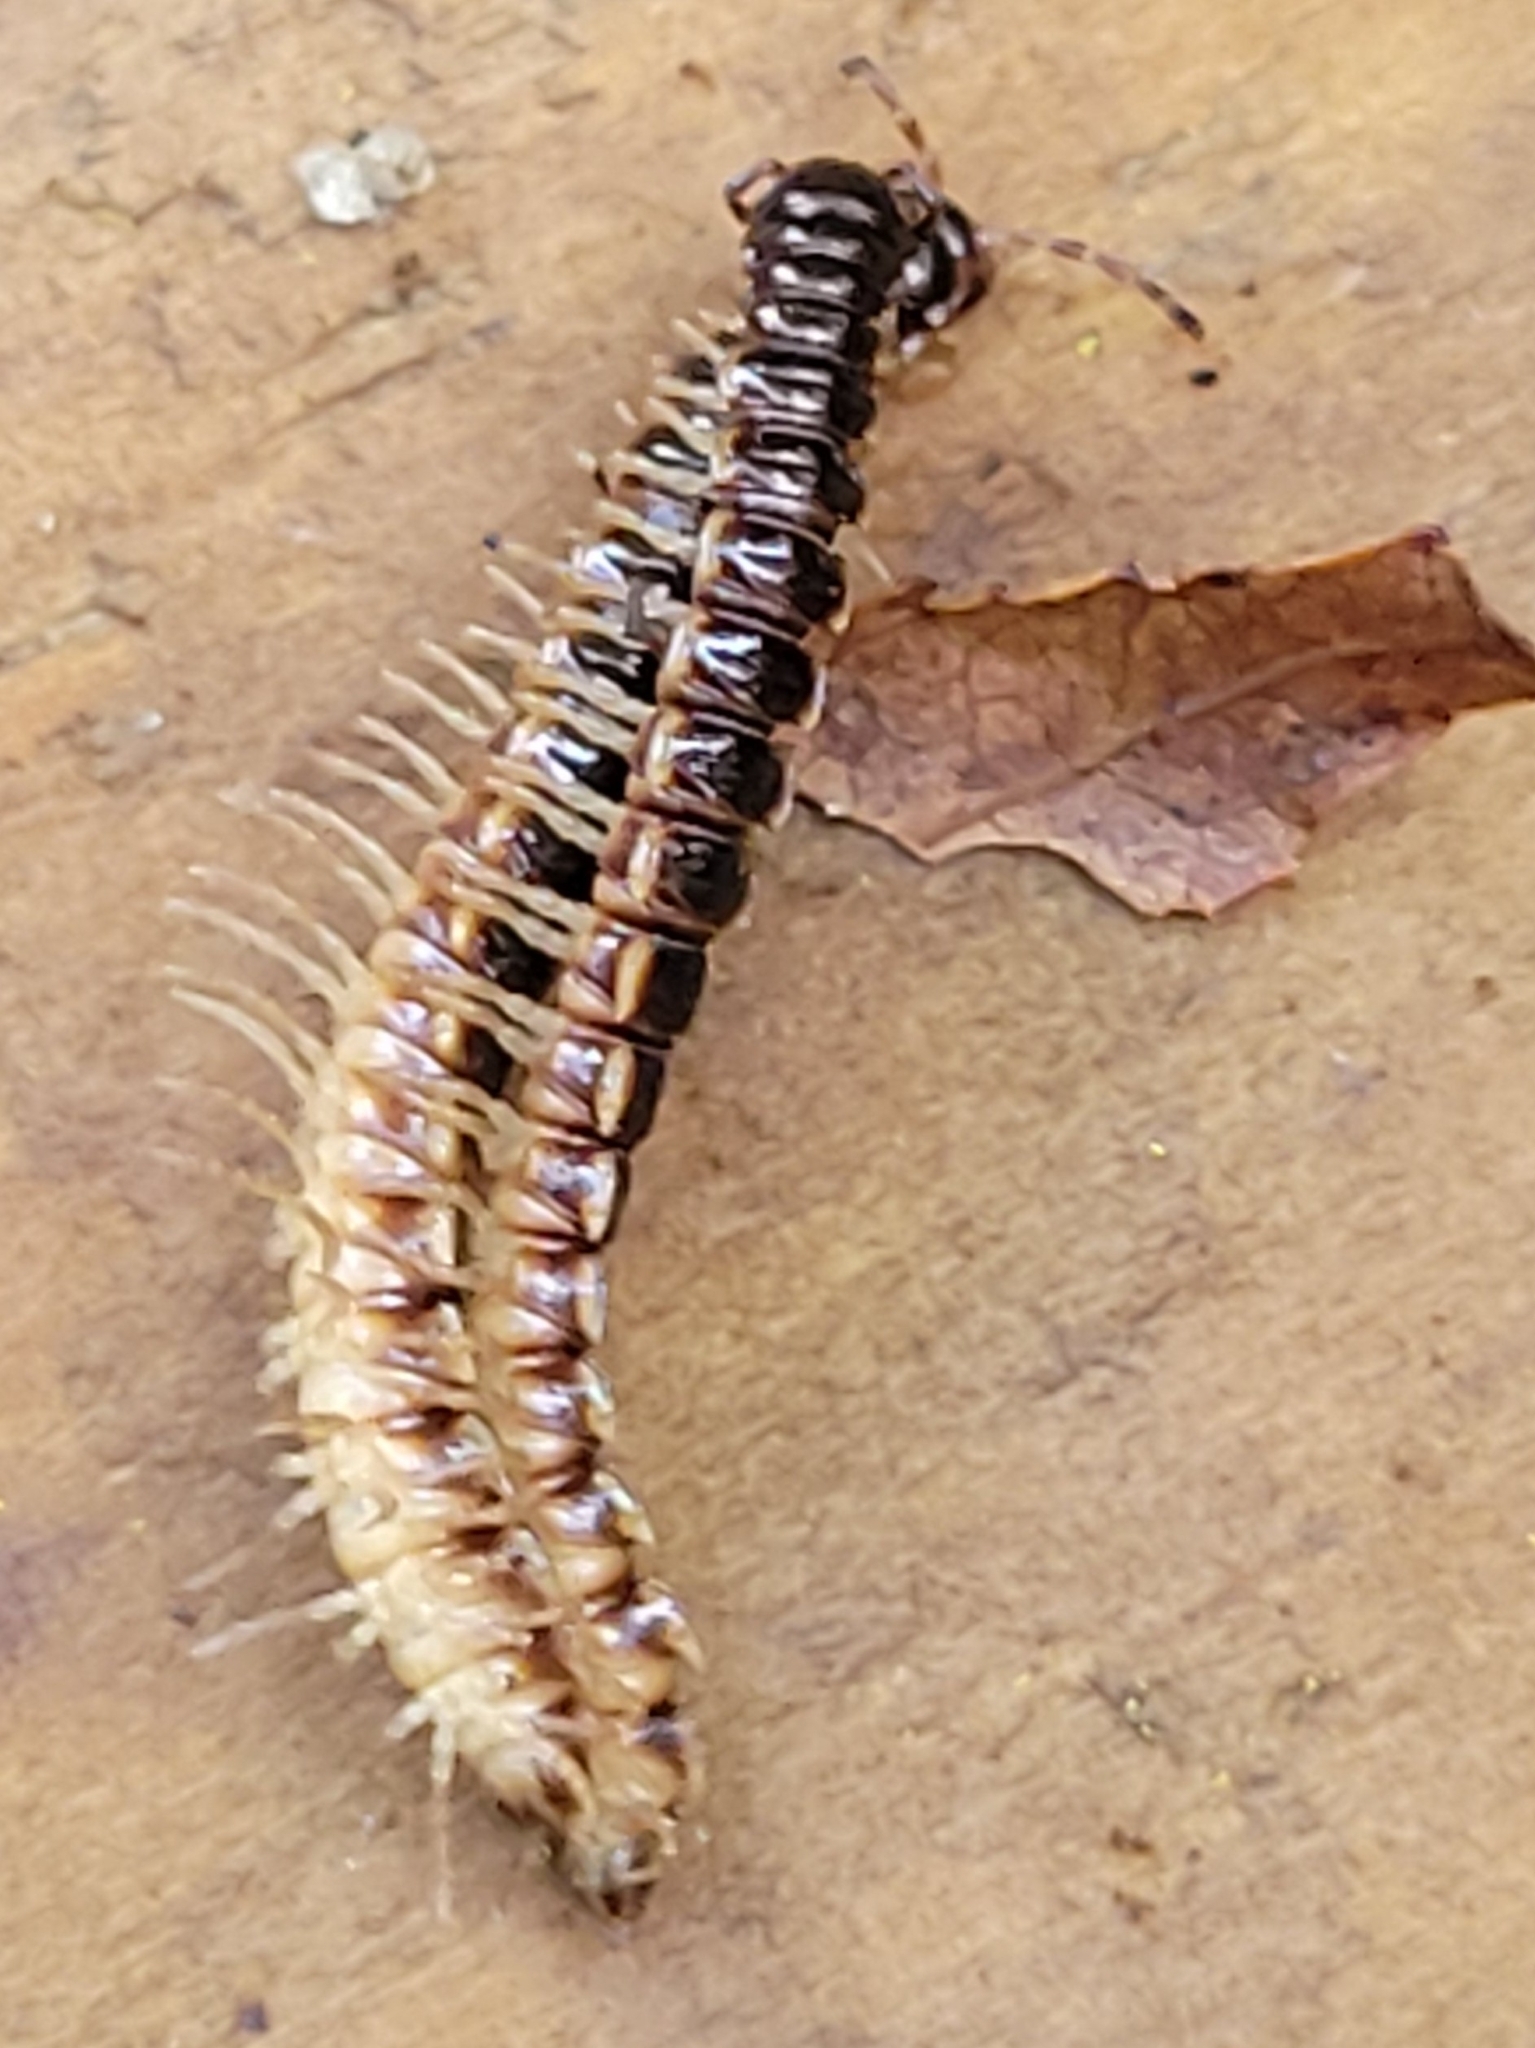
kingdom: Animalia
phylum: Arthropoda
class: Diplopoda
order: Polydesmida
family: Paradoxosomatidae
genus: Oxidus
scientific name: Oxidus gracilis
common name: Greenhouse millipede
